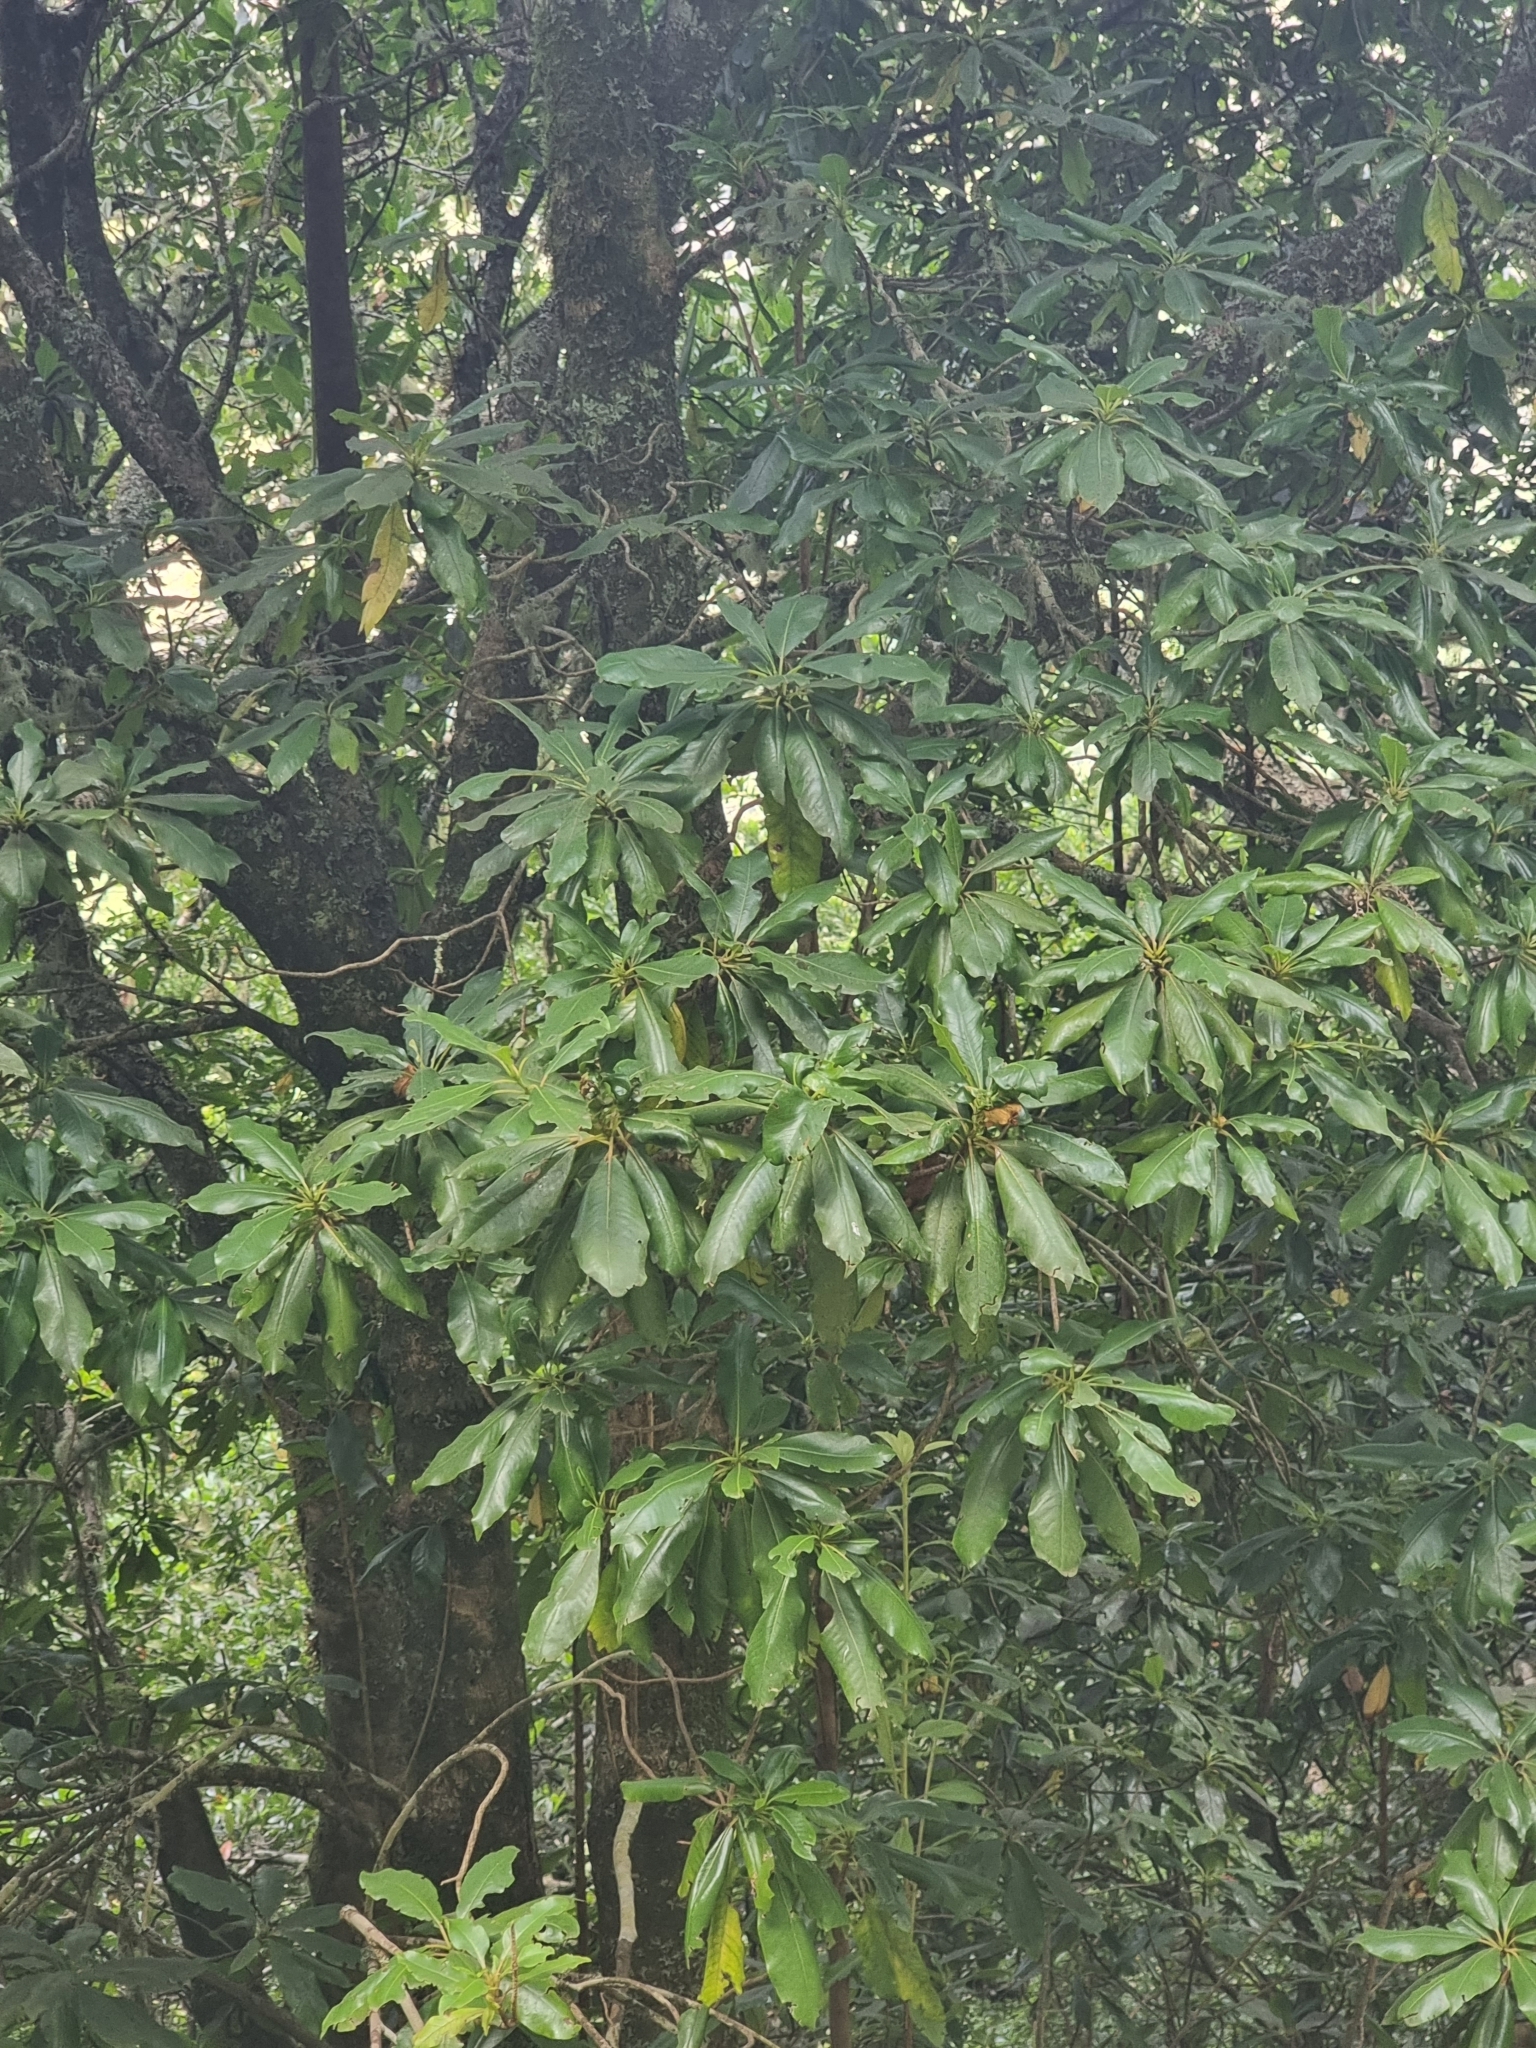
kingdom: Plantae
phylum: Tracheophyta
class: Magnoliopsida
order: Ericales
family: Clethraceae
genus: Clethra
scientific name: Clethra arborea
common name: Lily-of-the-valley-tree
